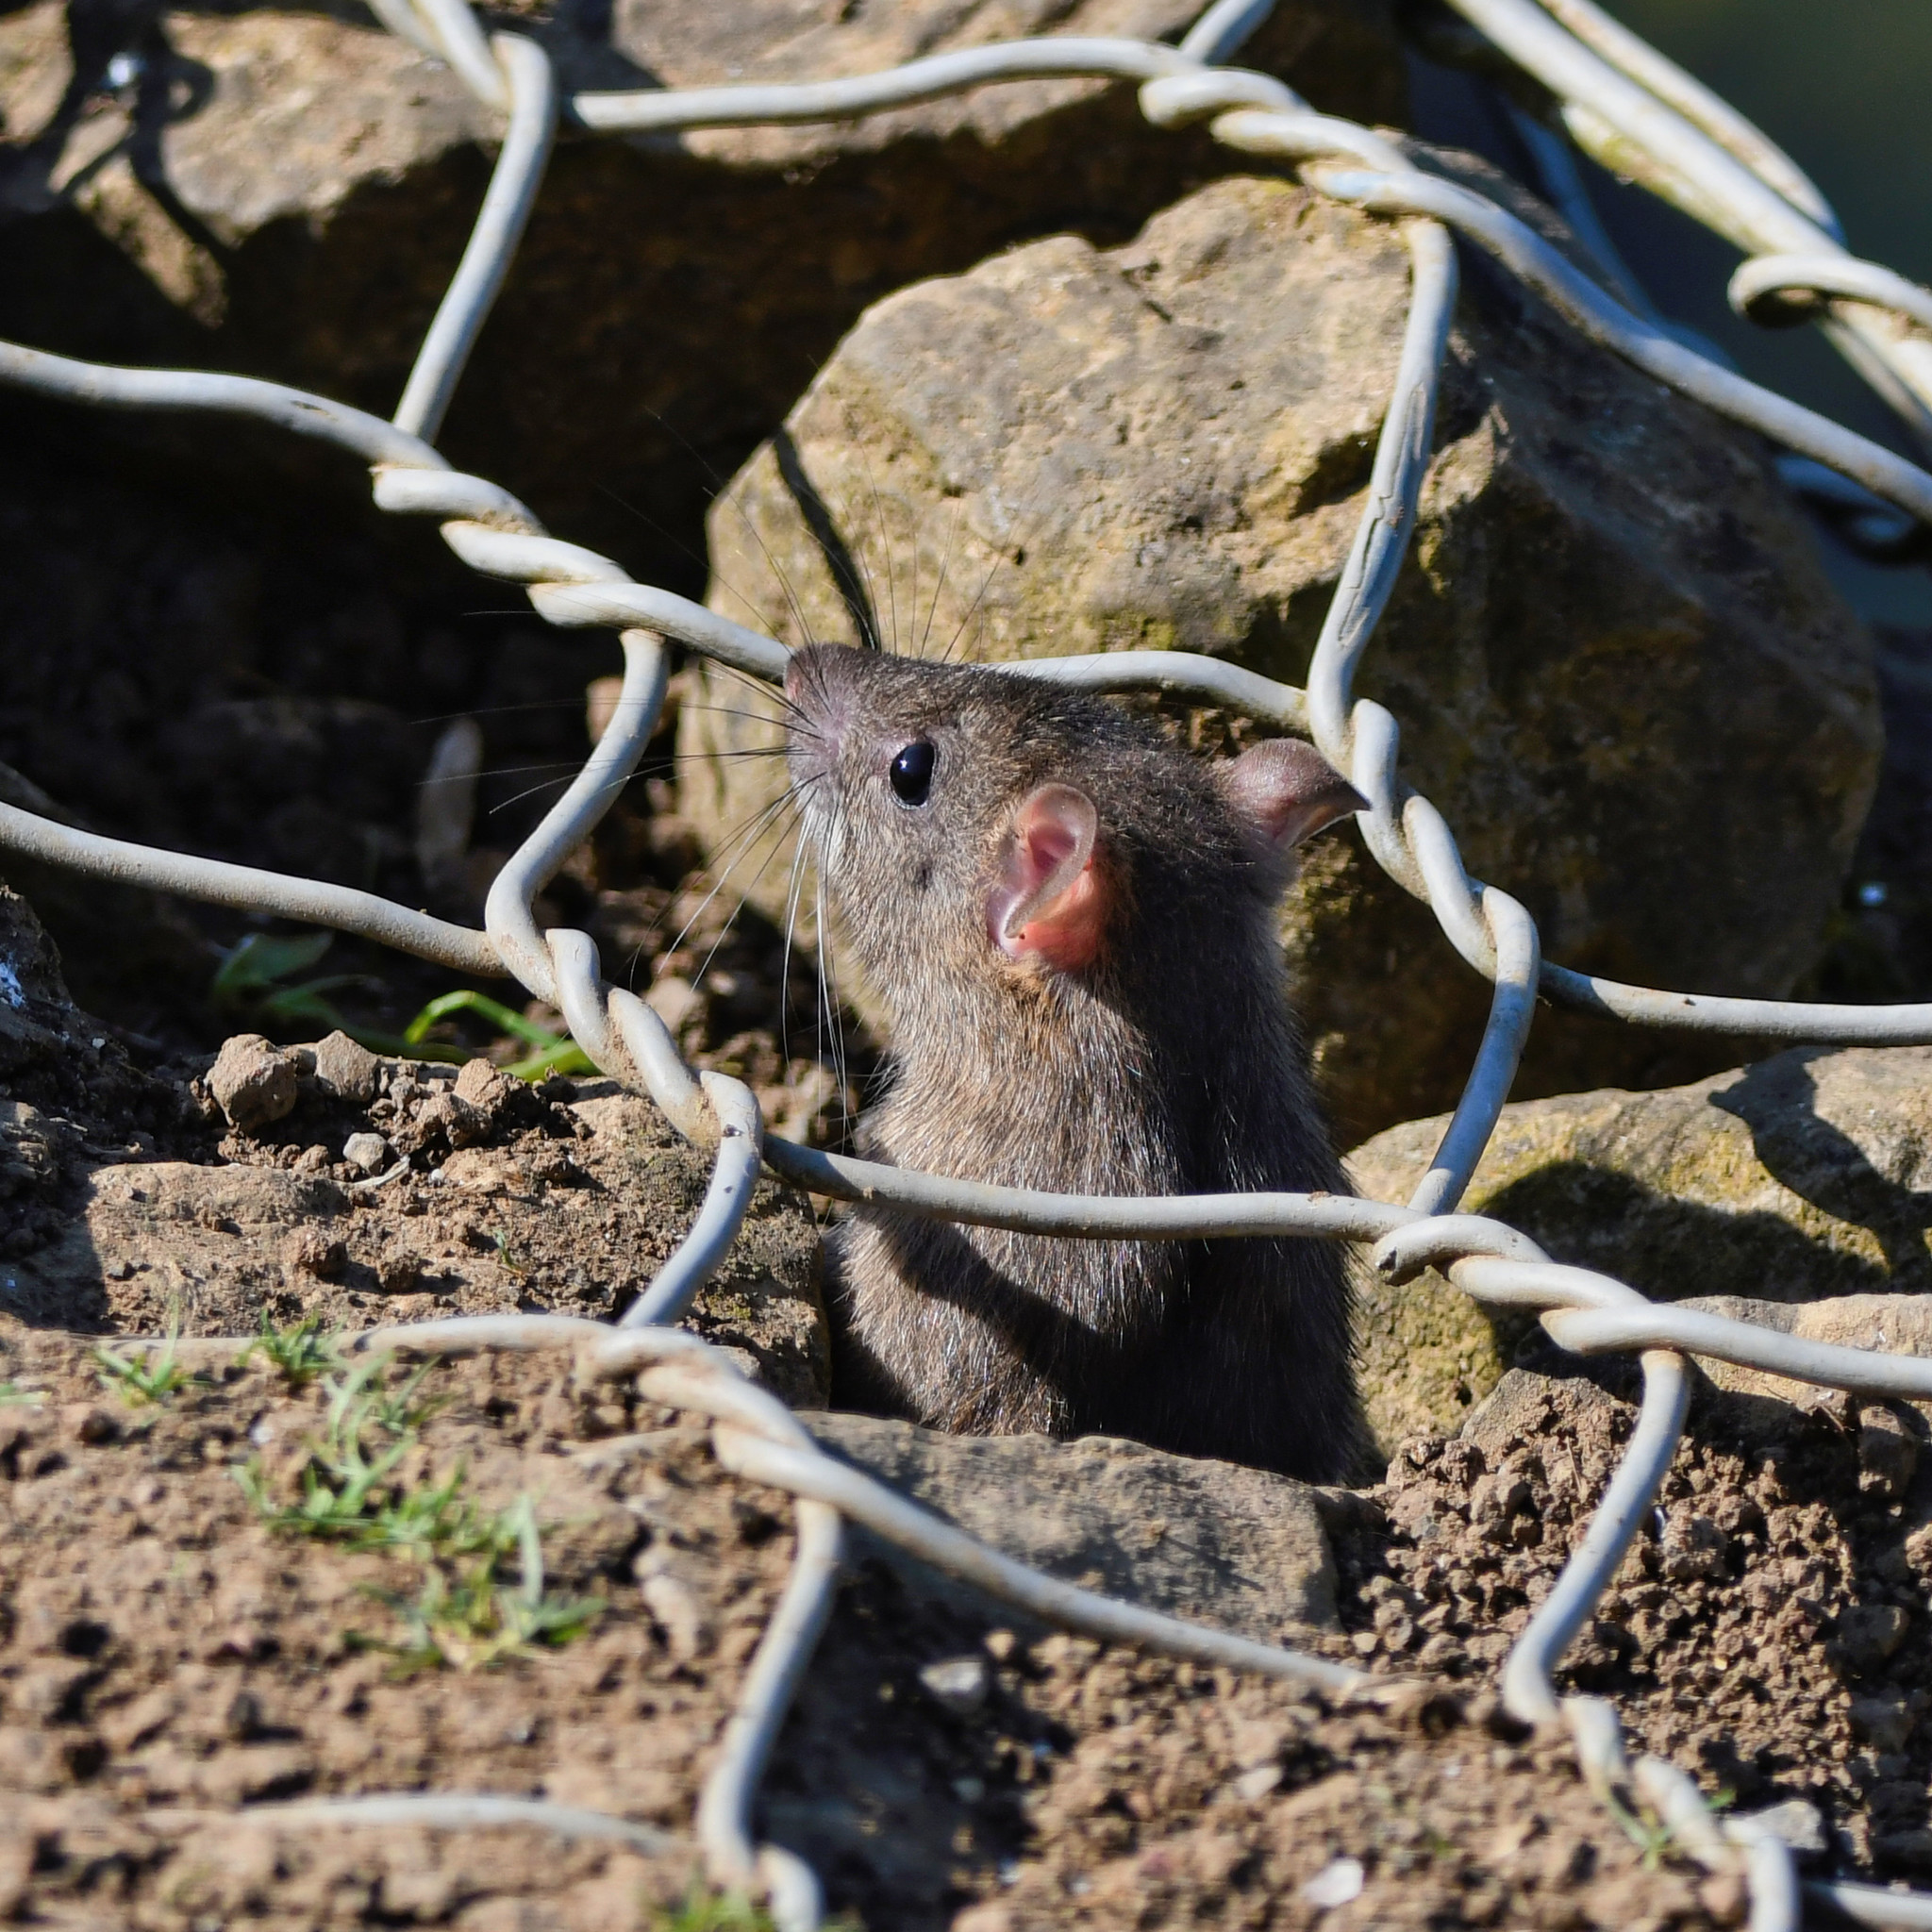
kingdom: Animalia
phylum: Chordata
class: Mammalia
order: Rodentia
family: Muridae
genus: Rattus
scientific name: Rattus norvegicus
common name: Brown rat
